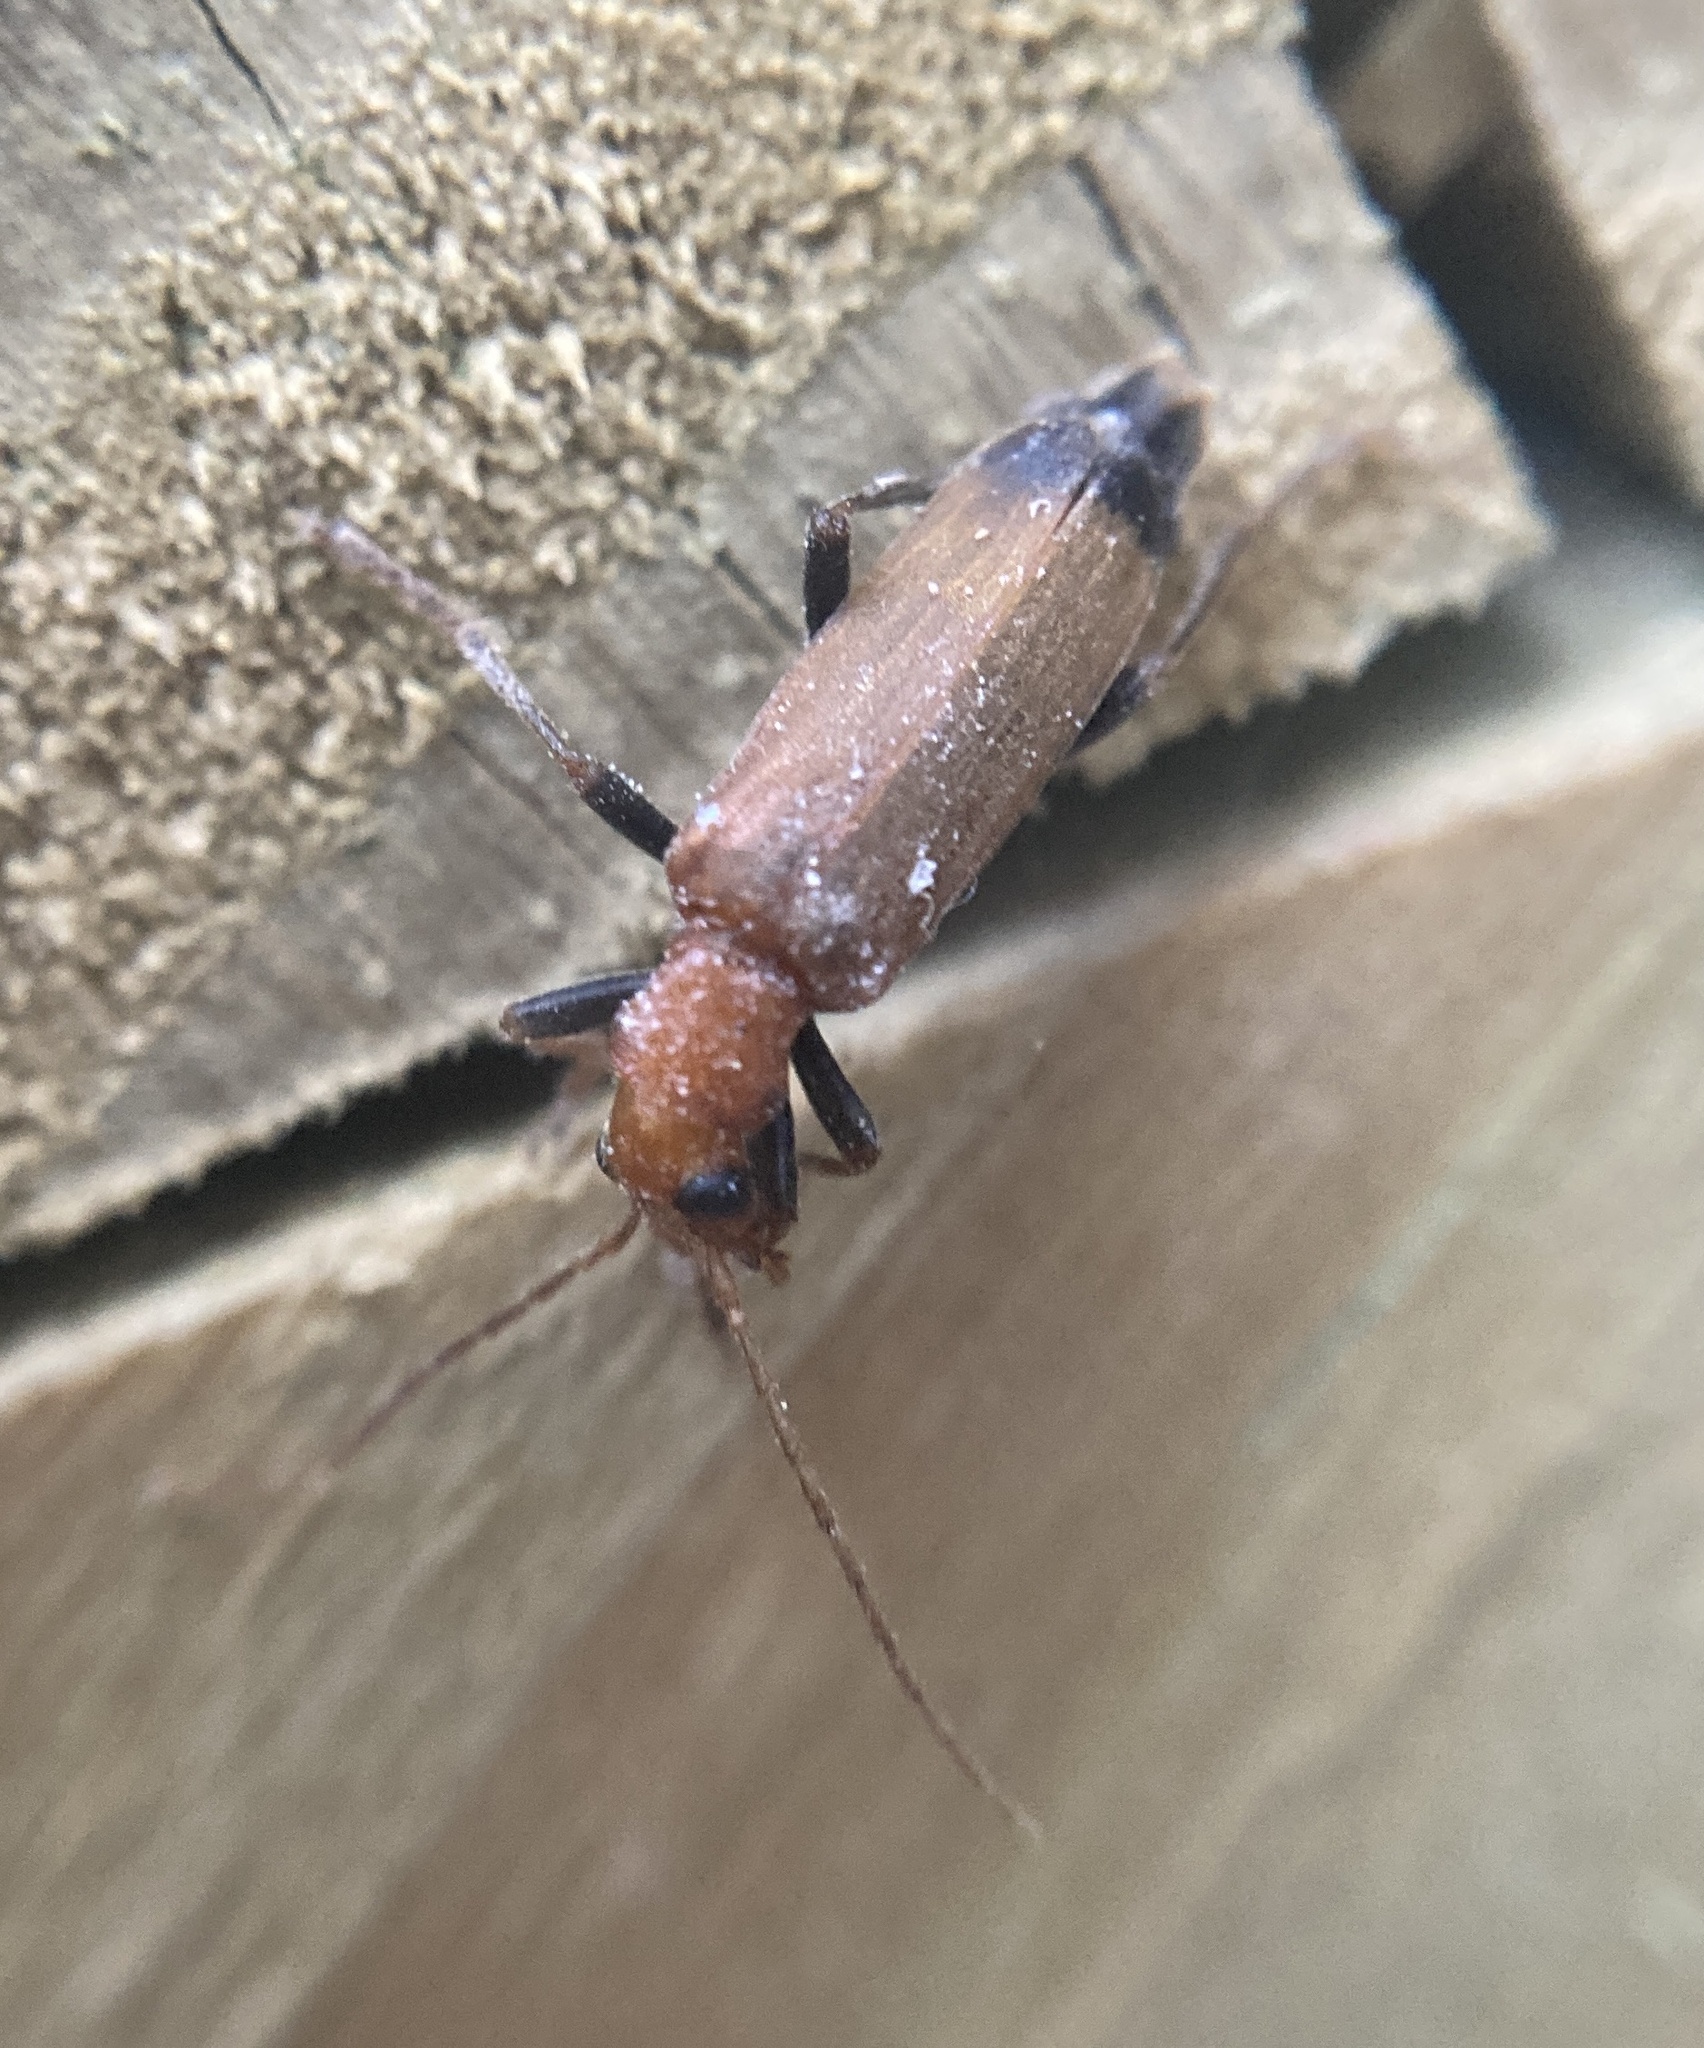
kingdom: Animalia
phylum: Arthropoda
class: Insecta
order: Coleoptera
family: Oedemeridae
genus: Nacerdes
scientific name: Nacerdes melanura
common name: Wharf borer
